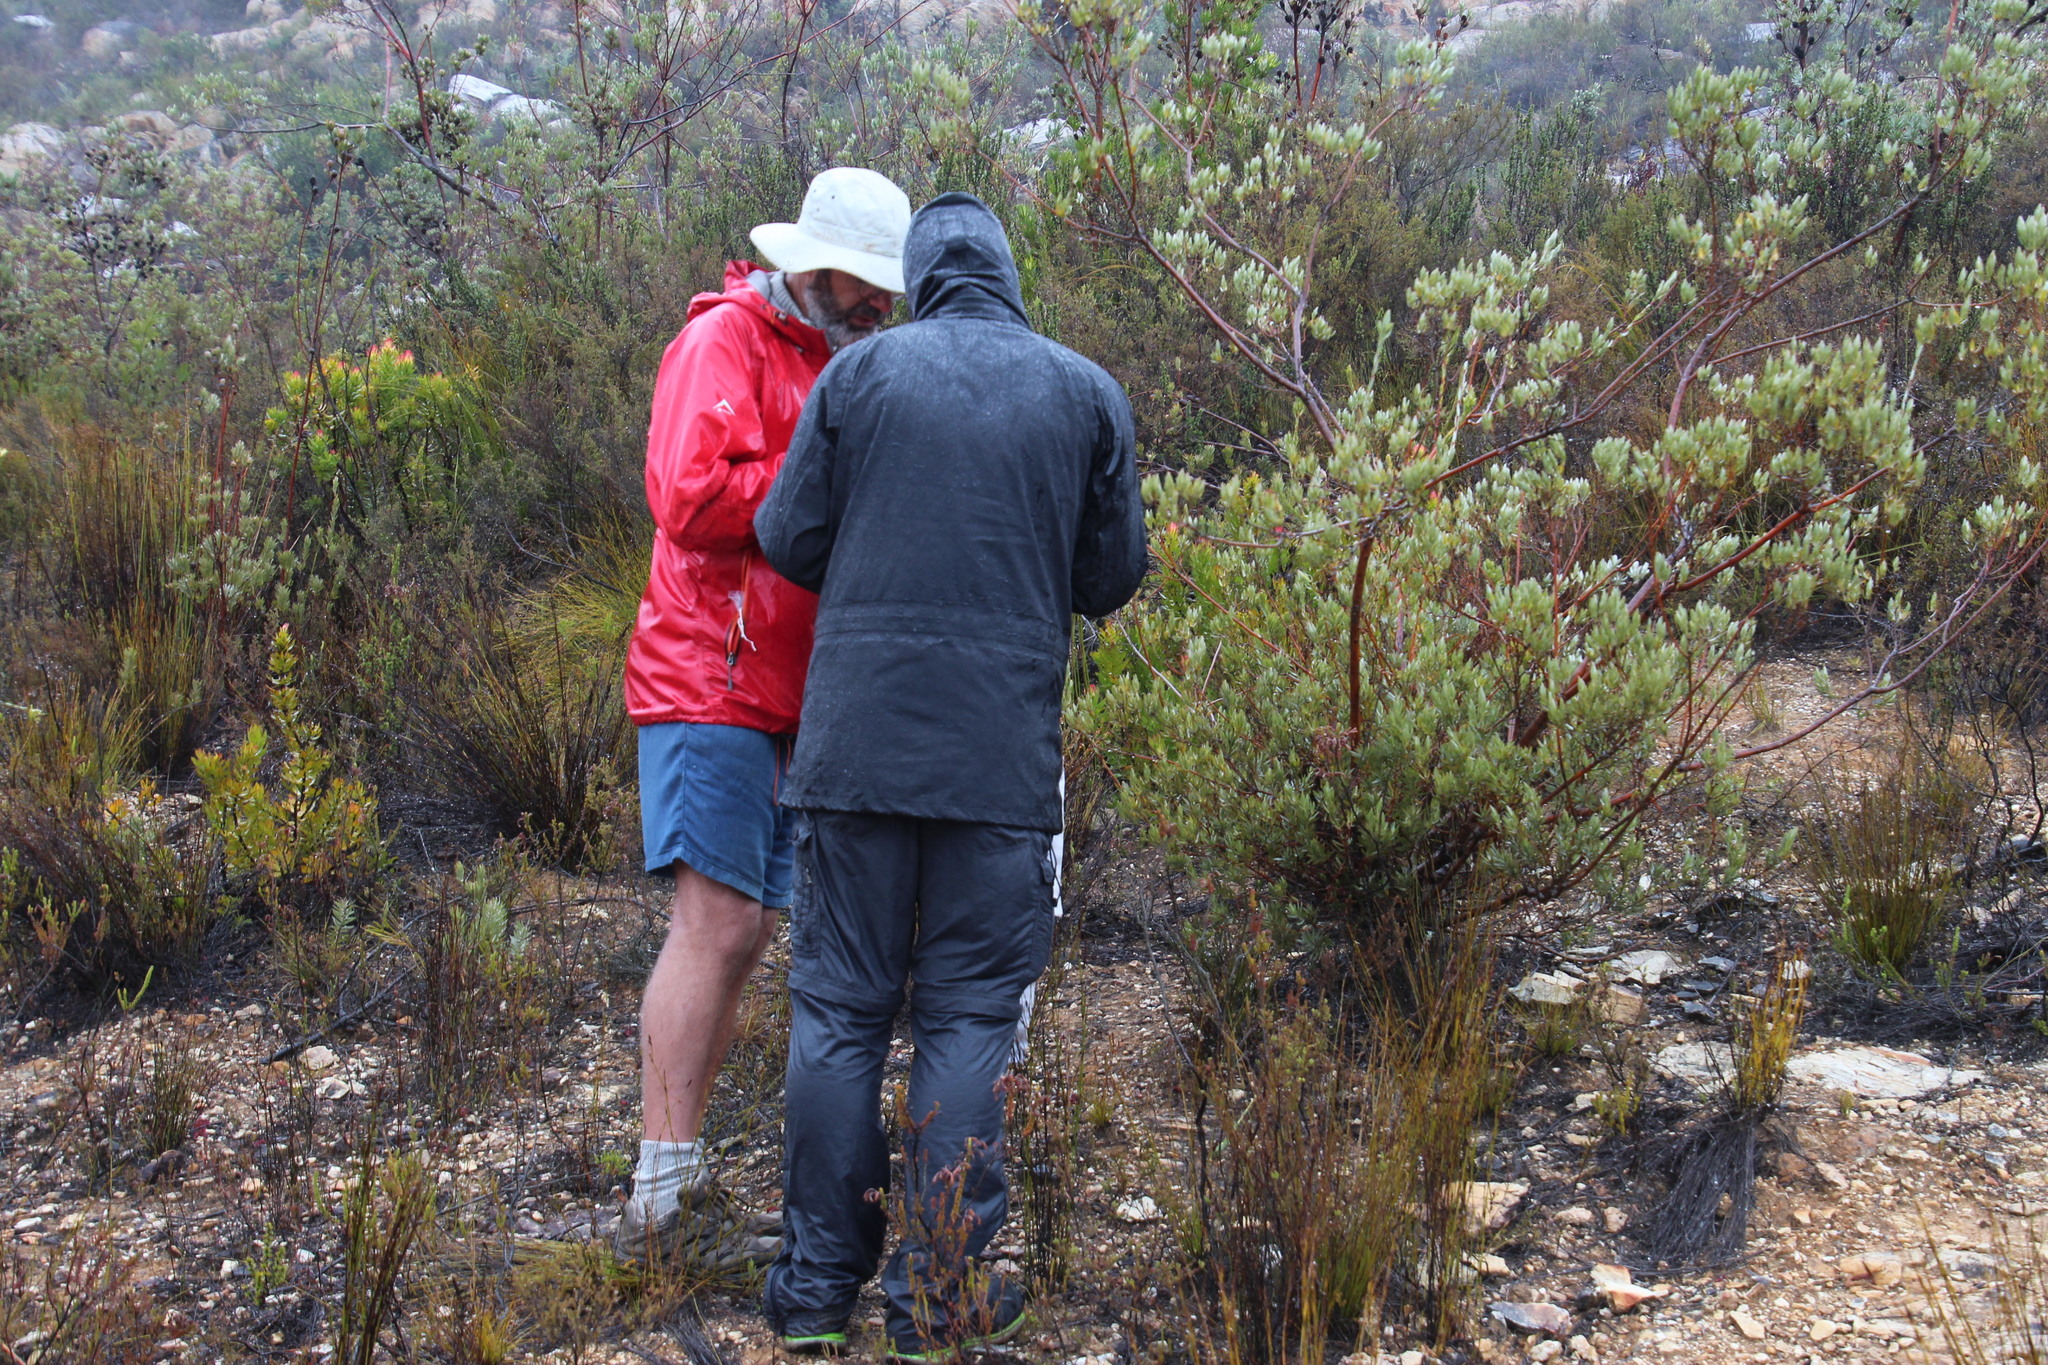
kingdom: Plantae
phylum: Tracheophyta
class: Magnoliopsida
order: Proteales
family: Proteaceae
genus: Leucadendron
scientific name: Leucadendron uliginosum
